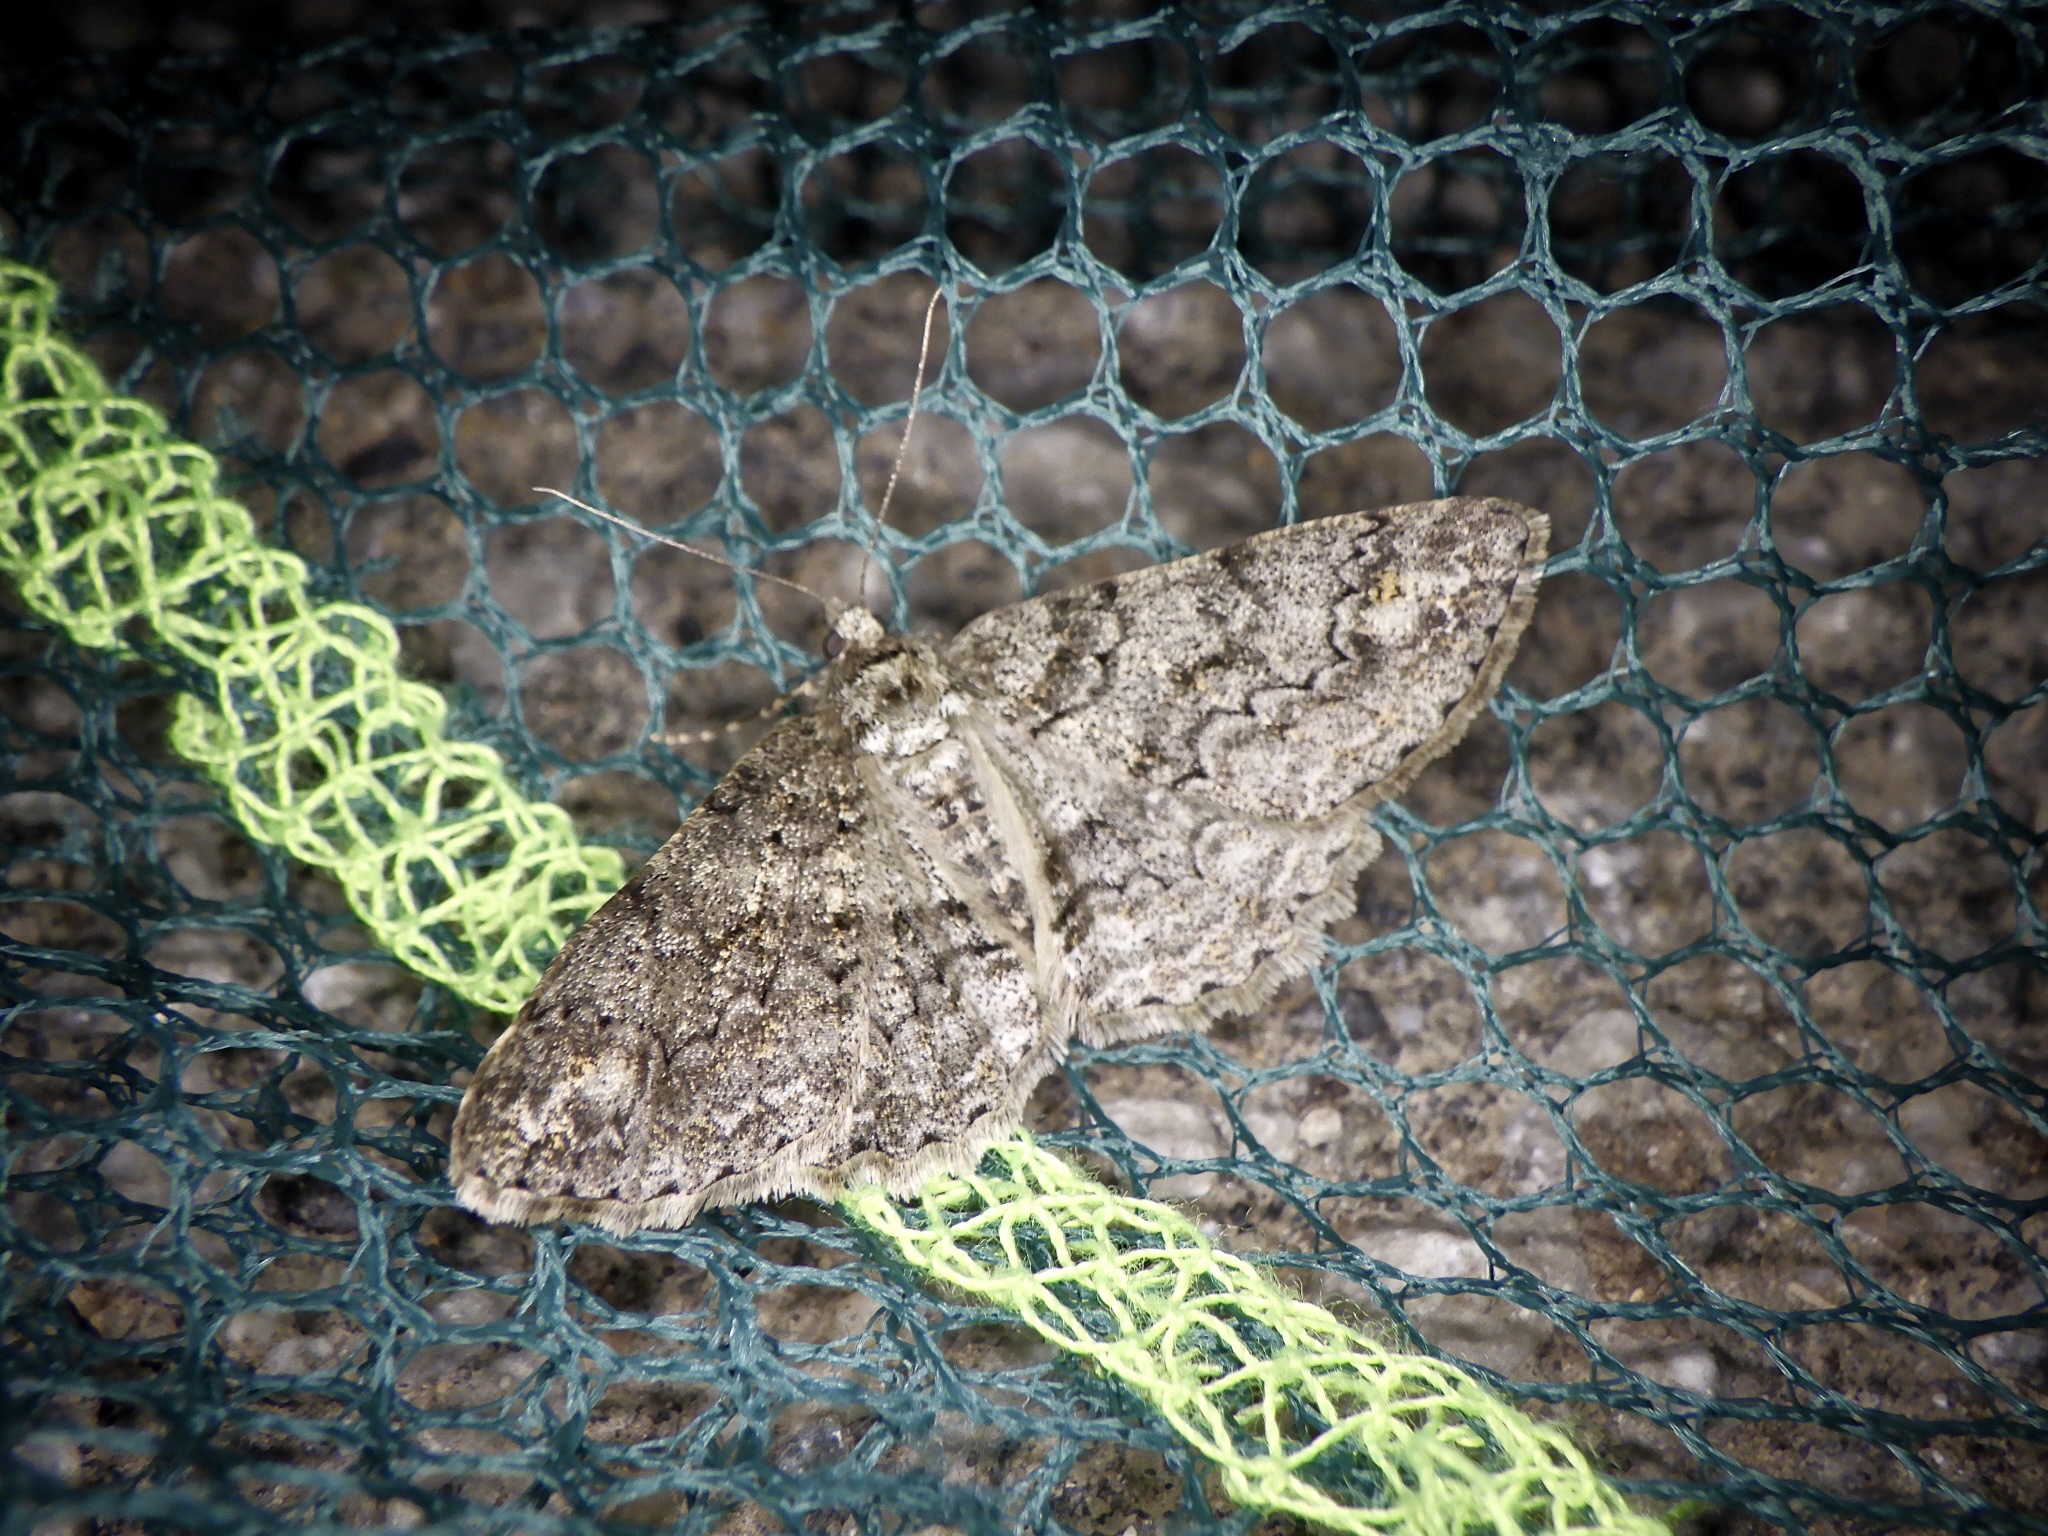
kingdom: Animalia
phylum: Arthropoda
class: Insecta
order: Lepidoptera
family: Geometridae
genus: Cleora
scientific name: Cleora leucophaea
